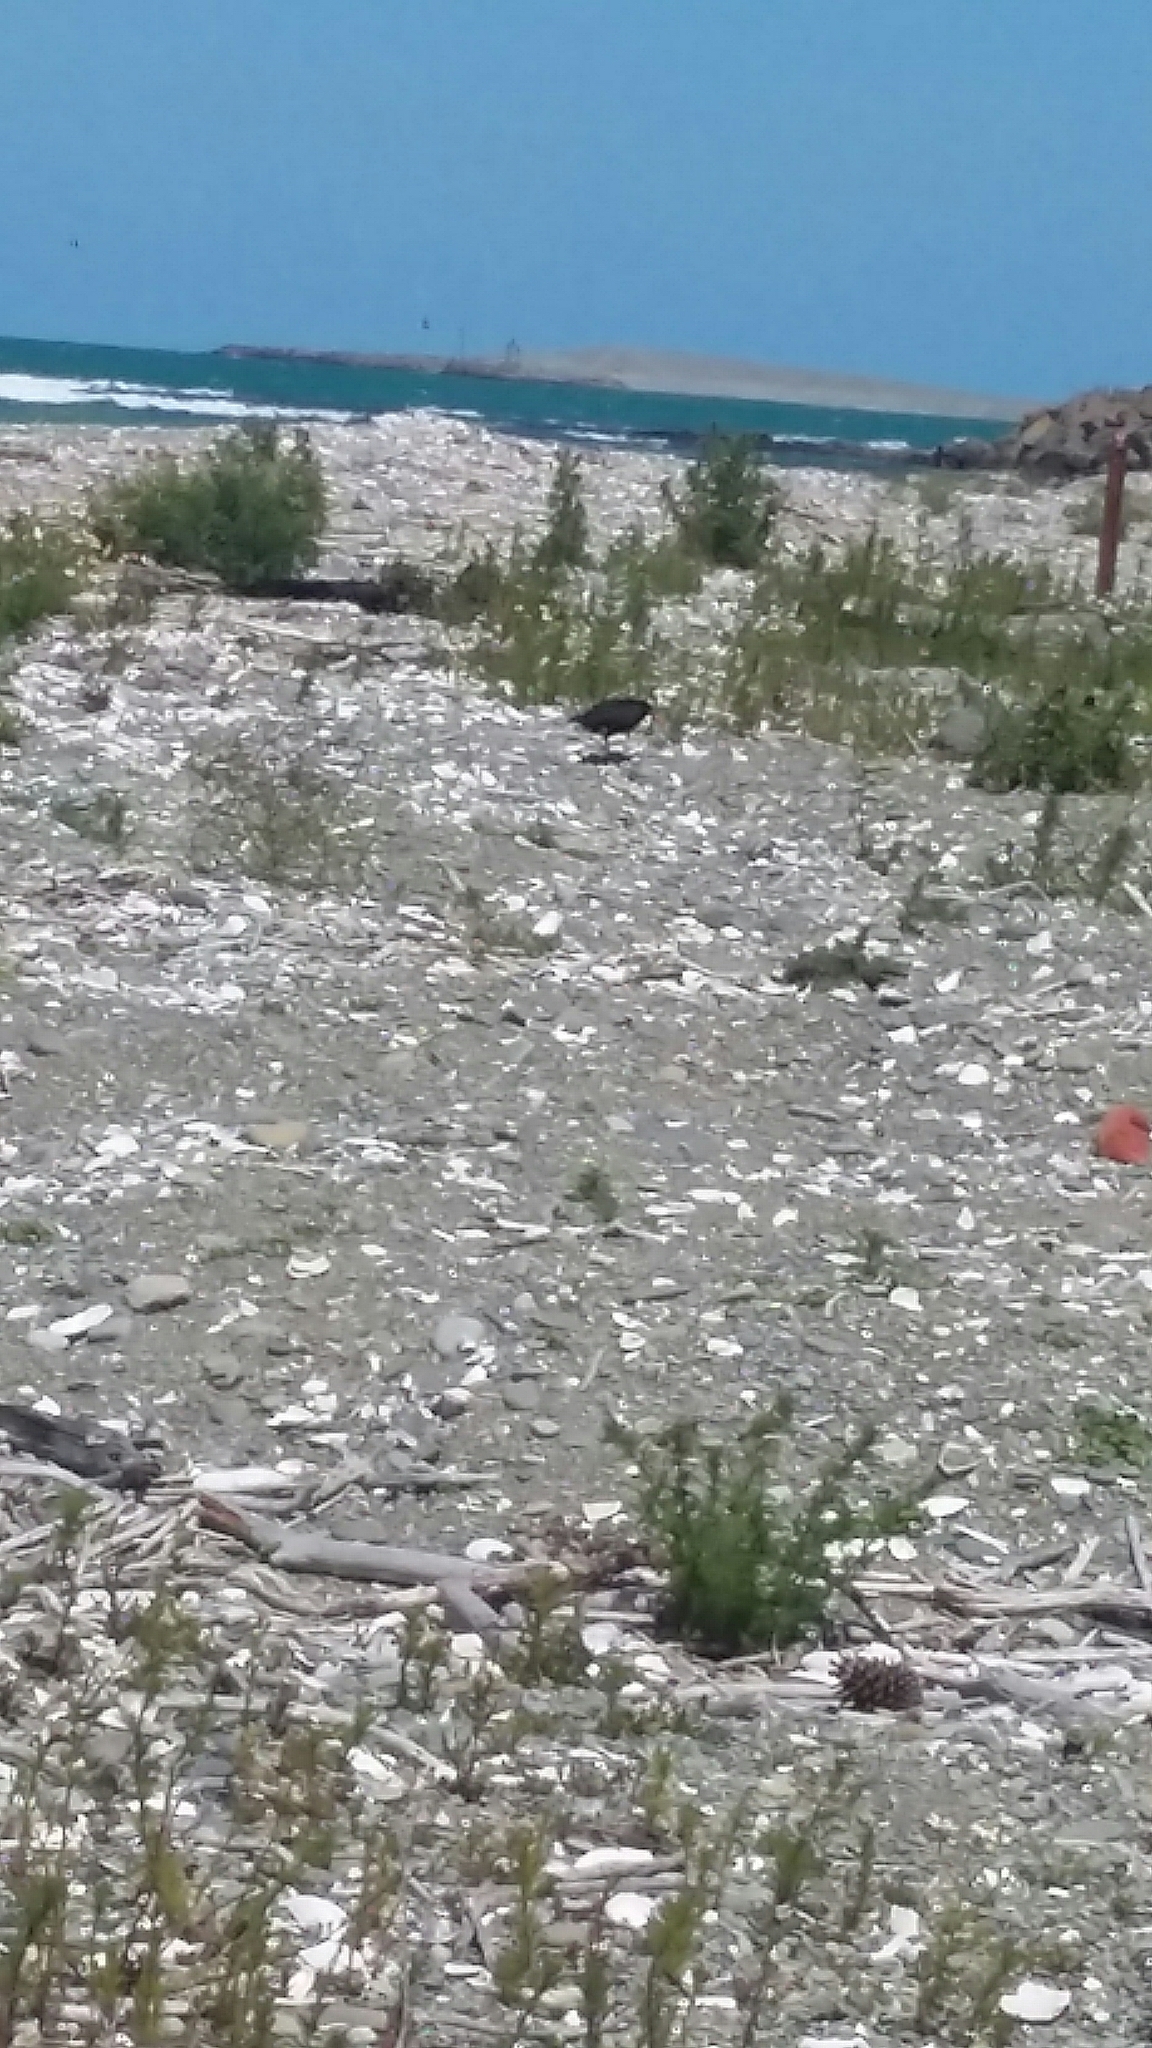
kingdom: Animalia
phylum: Chordata
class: Aves
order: Charadriiformes
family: Haematopodidae
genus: Haematopus
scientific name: Haematopus unicolor
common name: Variable oystercatcher
